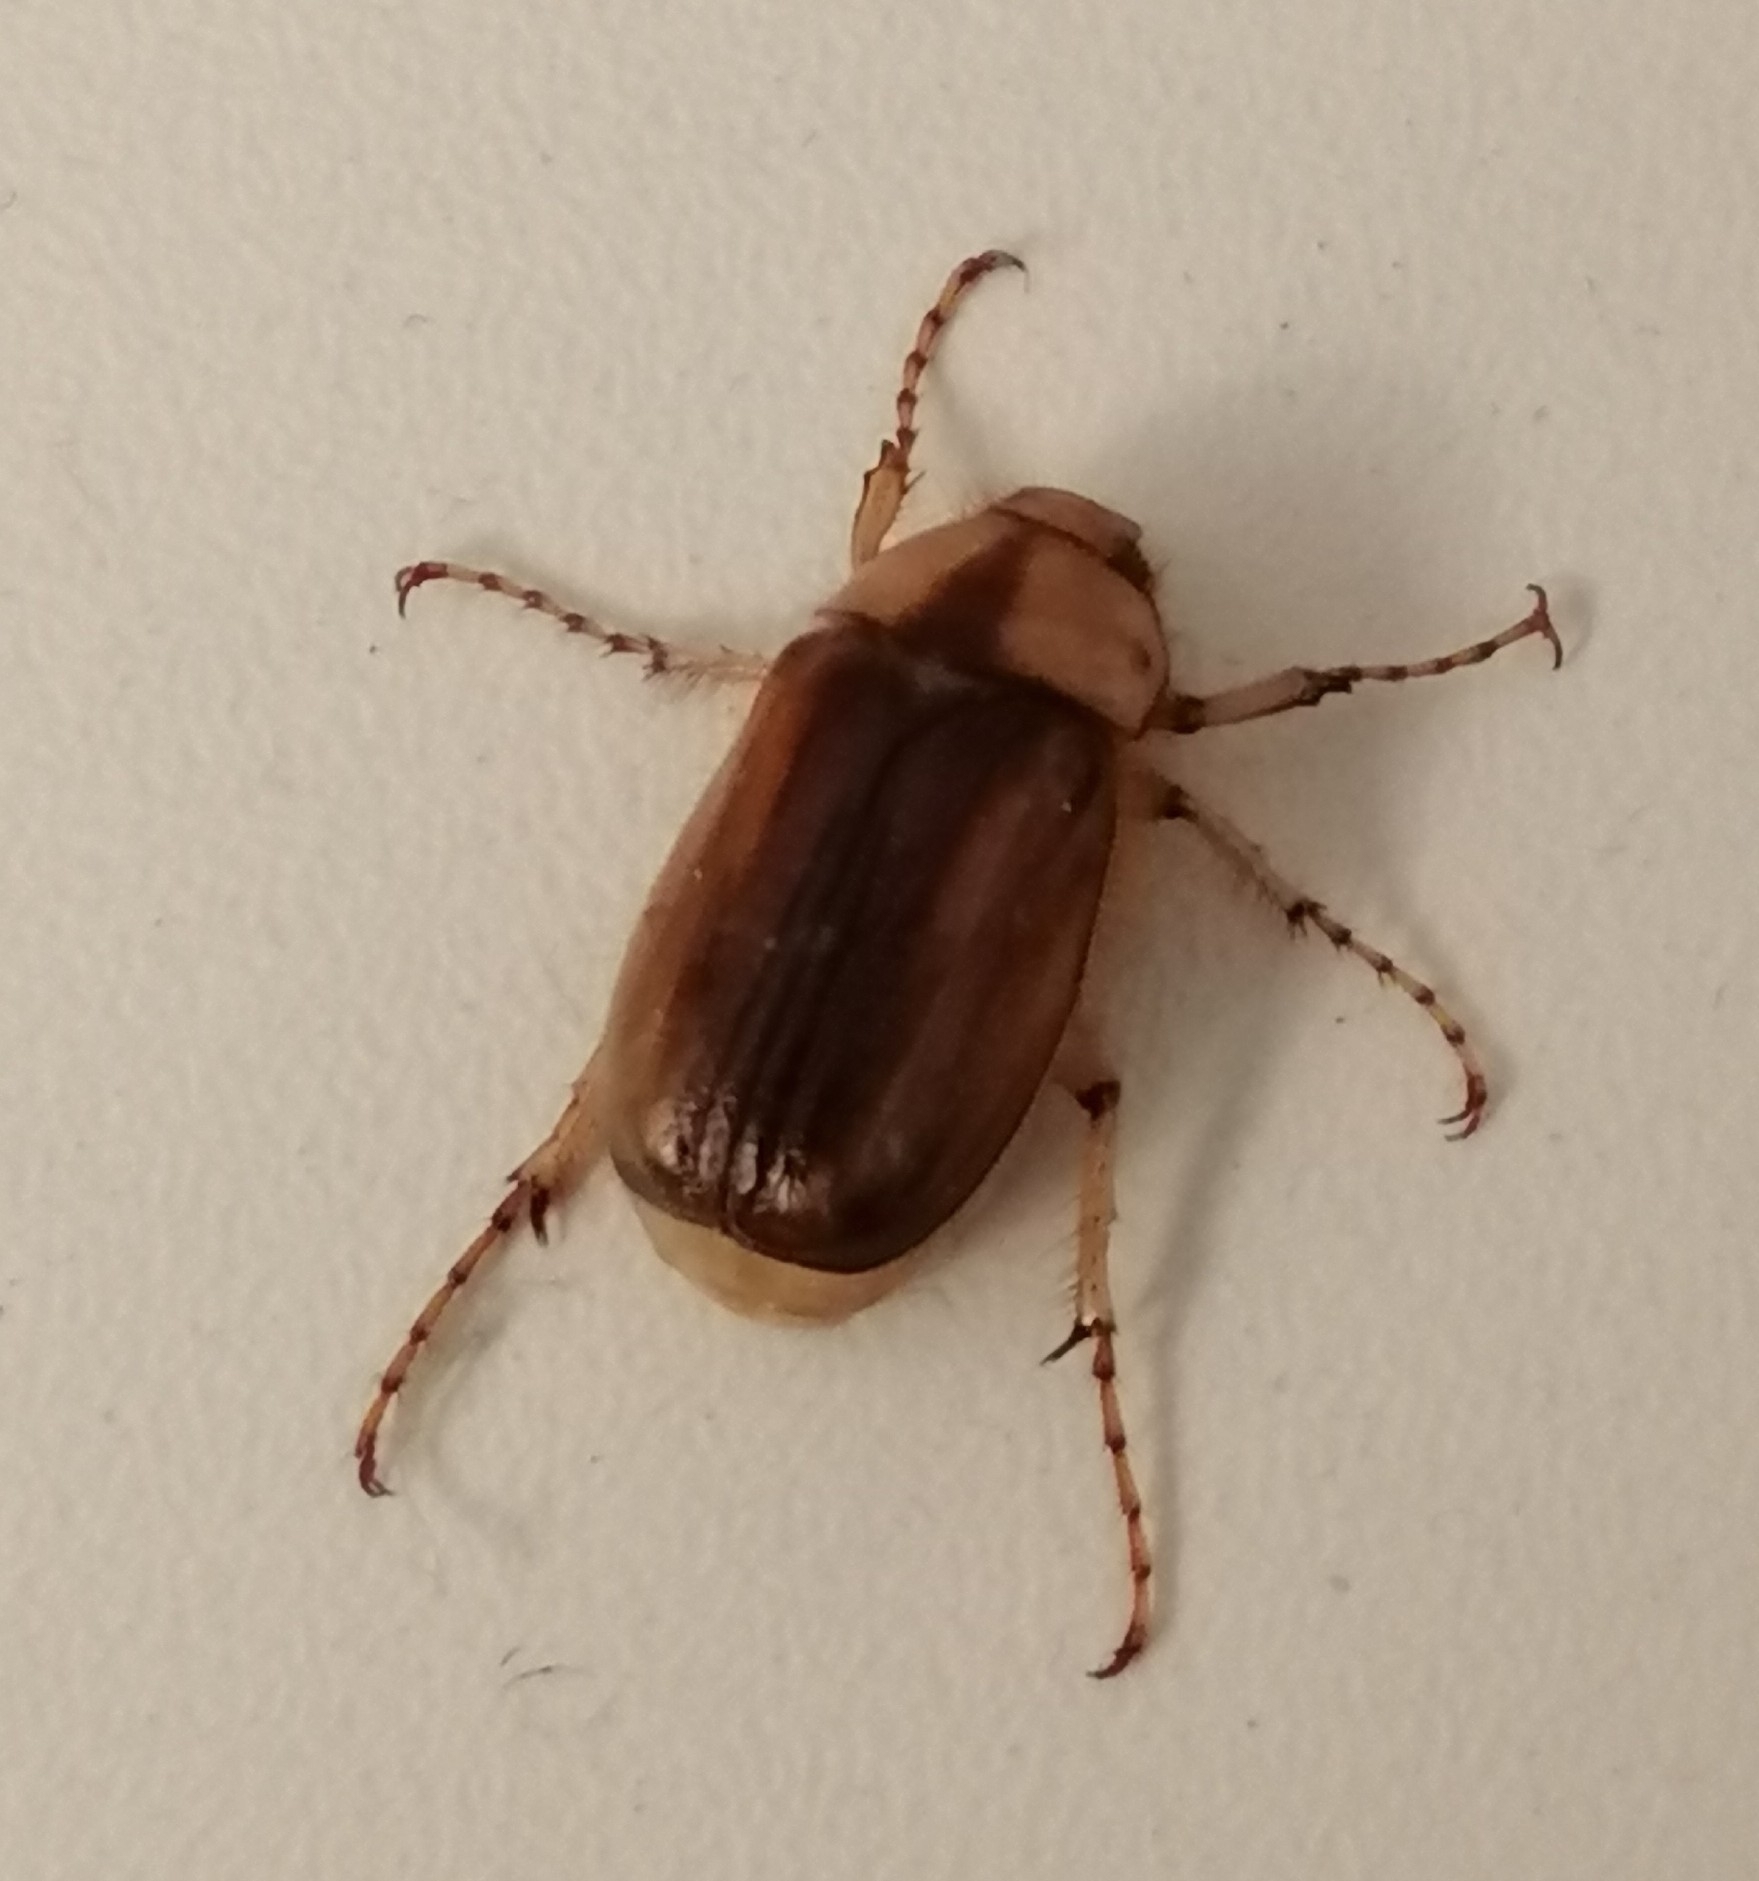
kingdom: Animalia
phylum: Arthropoda
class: Insecta
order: Coleoptera
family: Scarabaeidae
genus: Rhizotrogus
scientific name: Rhizotrogus aestivus
